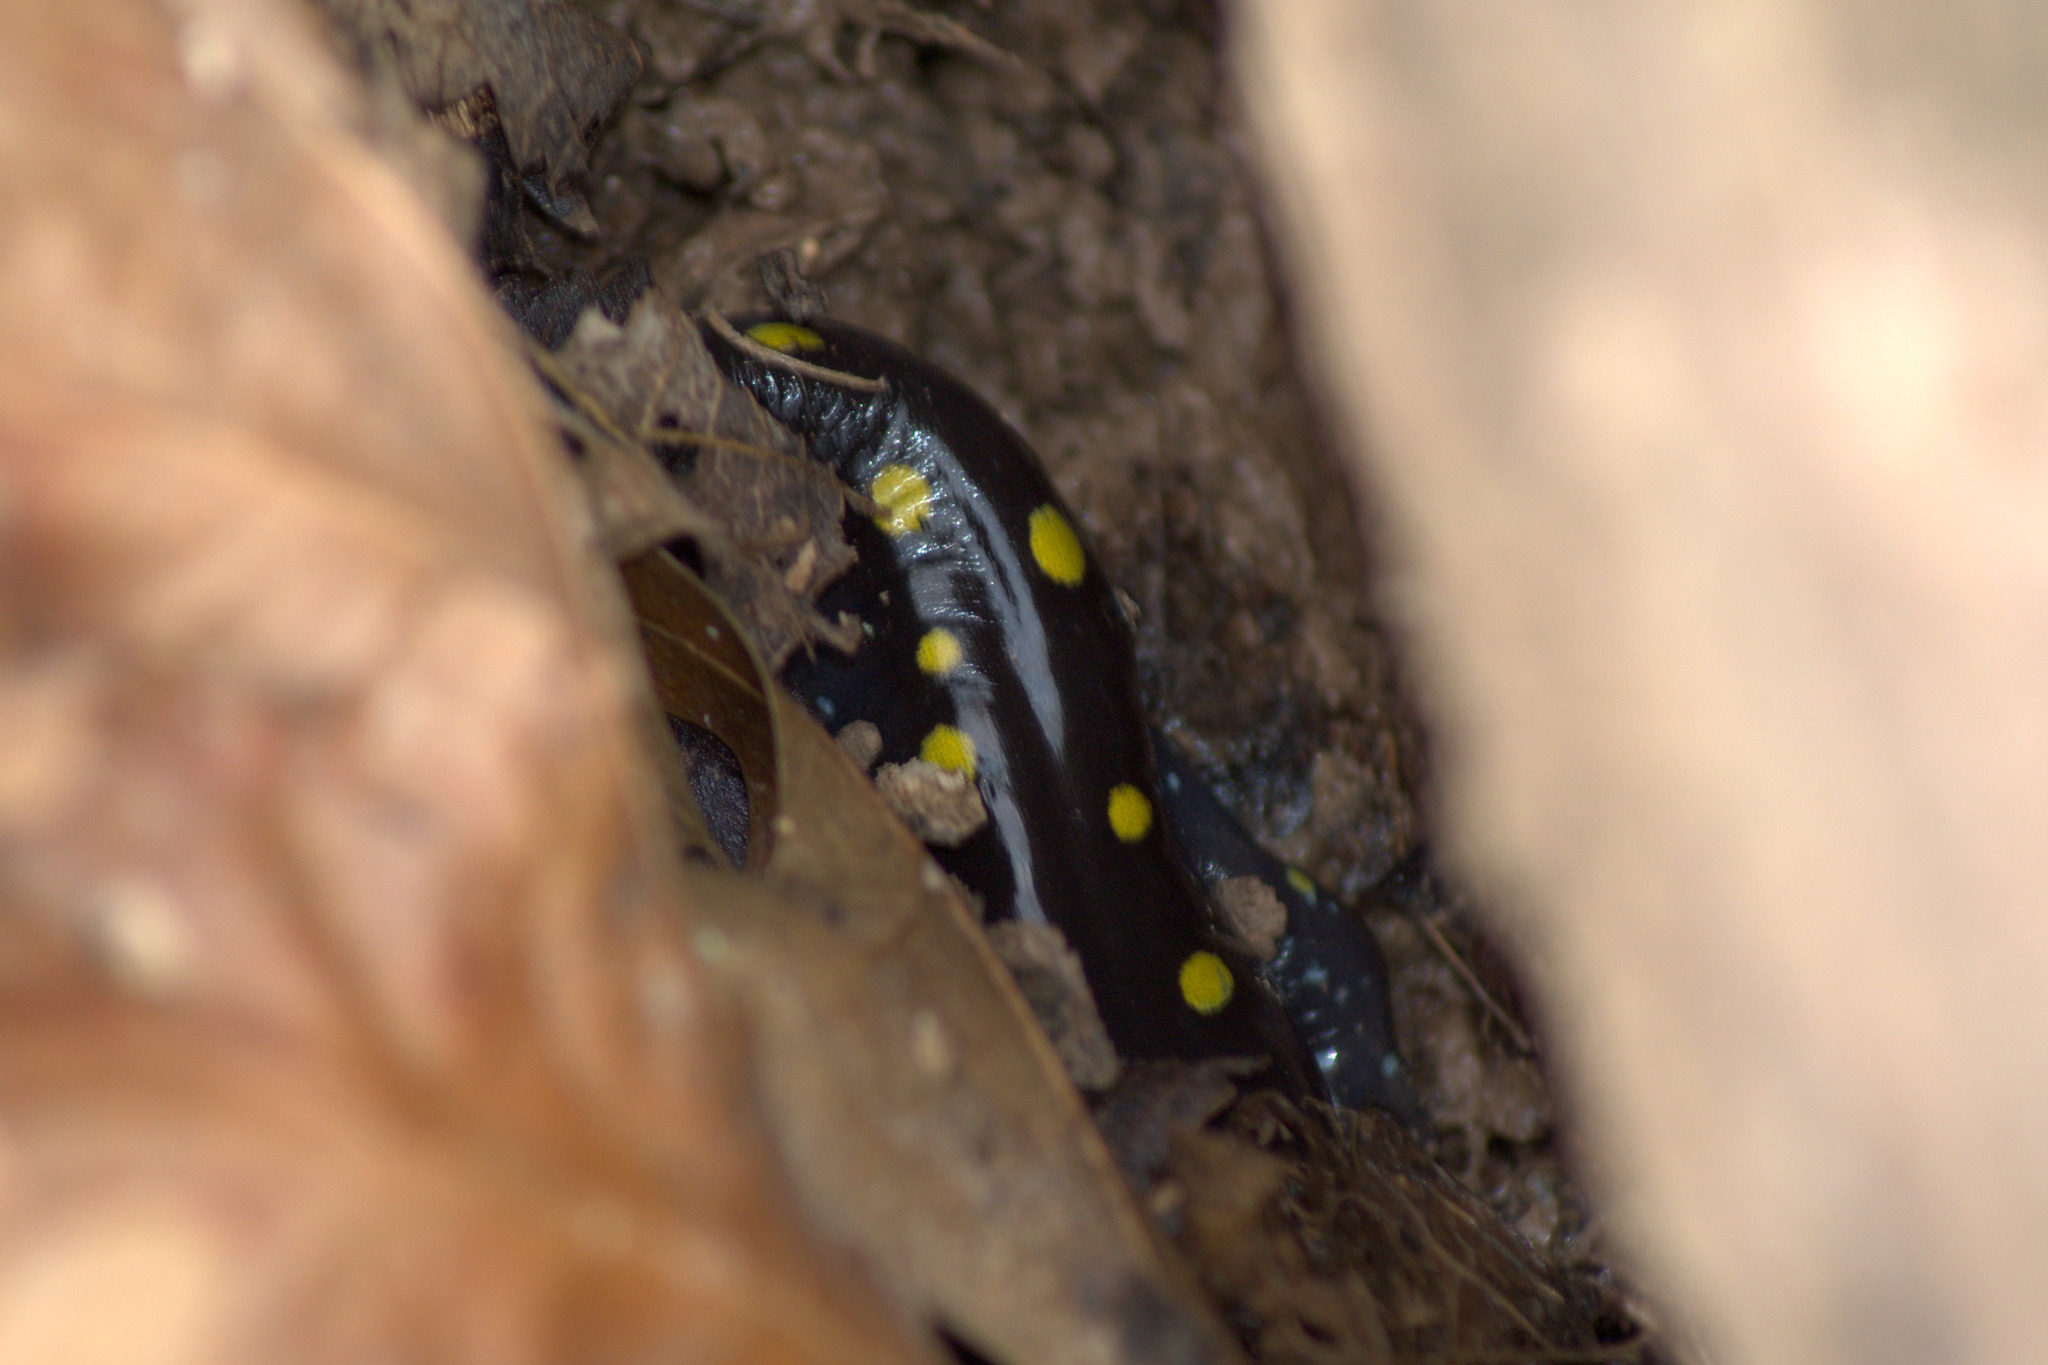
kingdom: Animalia
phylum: Chordata
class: Amphibia
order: Caudata
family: Ambystomatidae
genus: Ambystoma
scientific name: Ambystoma maculatum
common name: Spotted salamander
